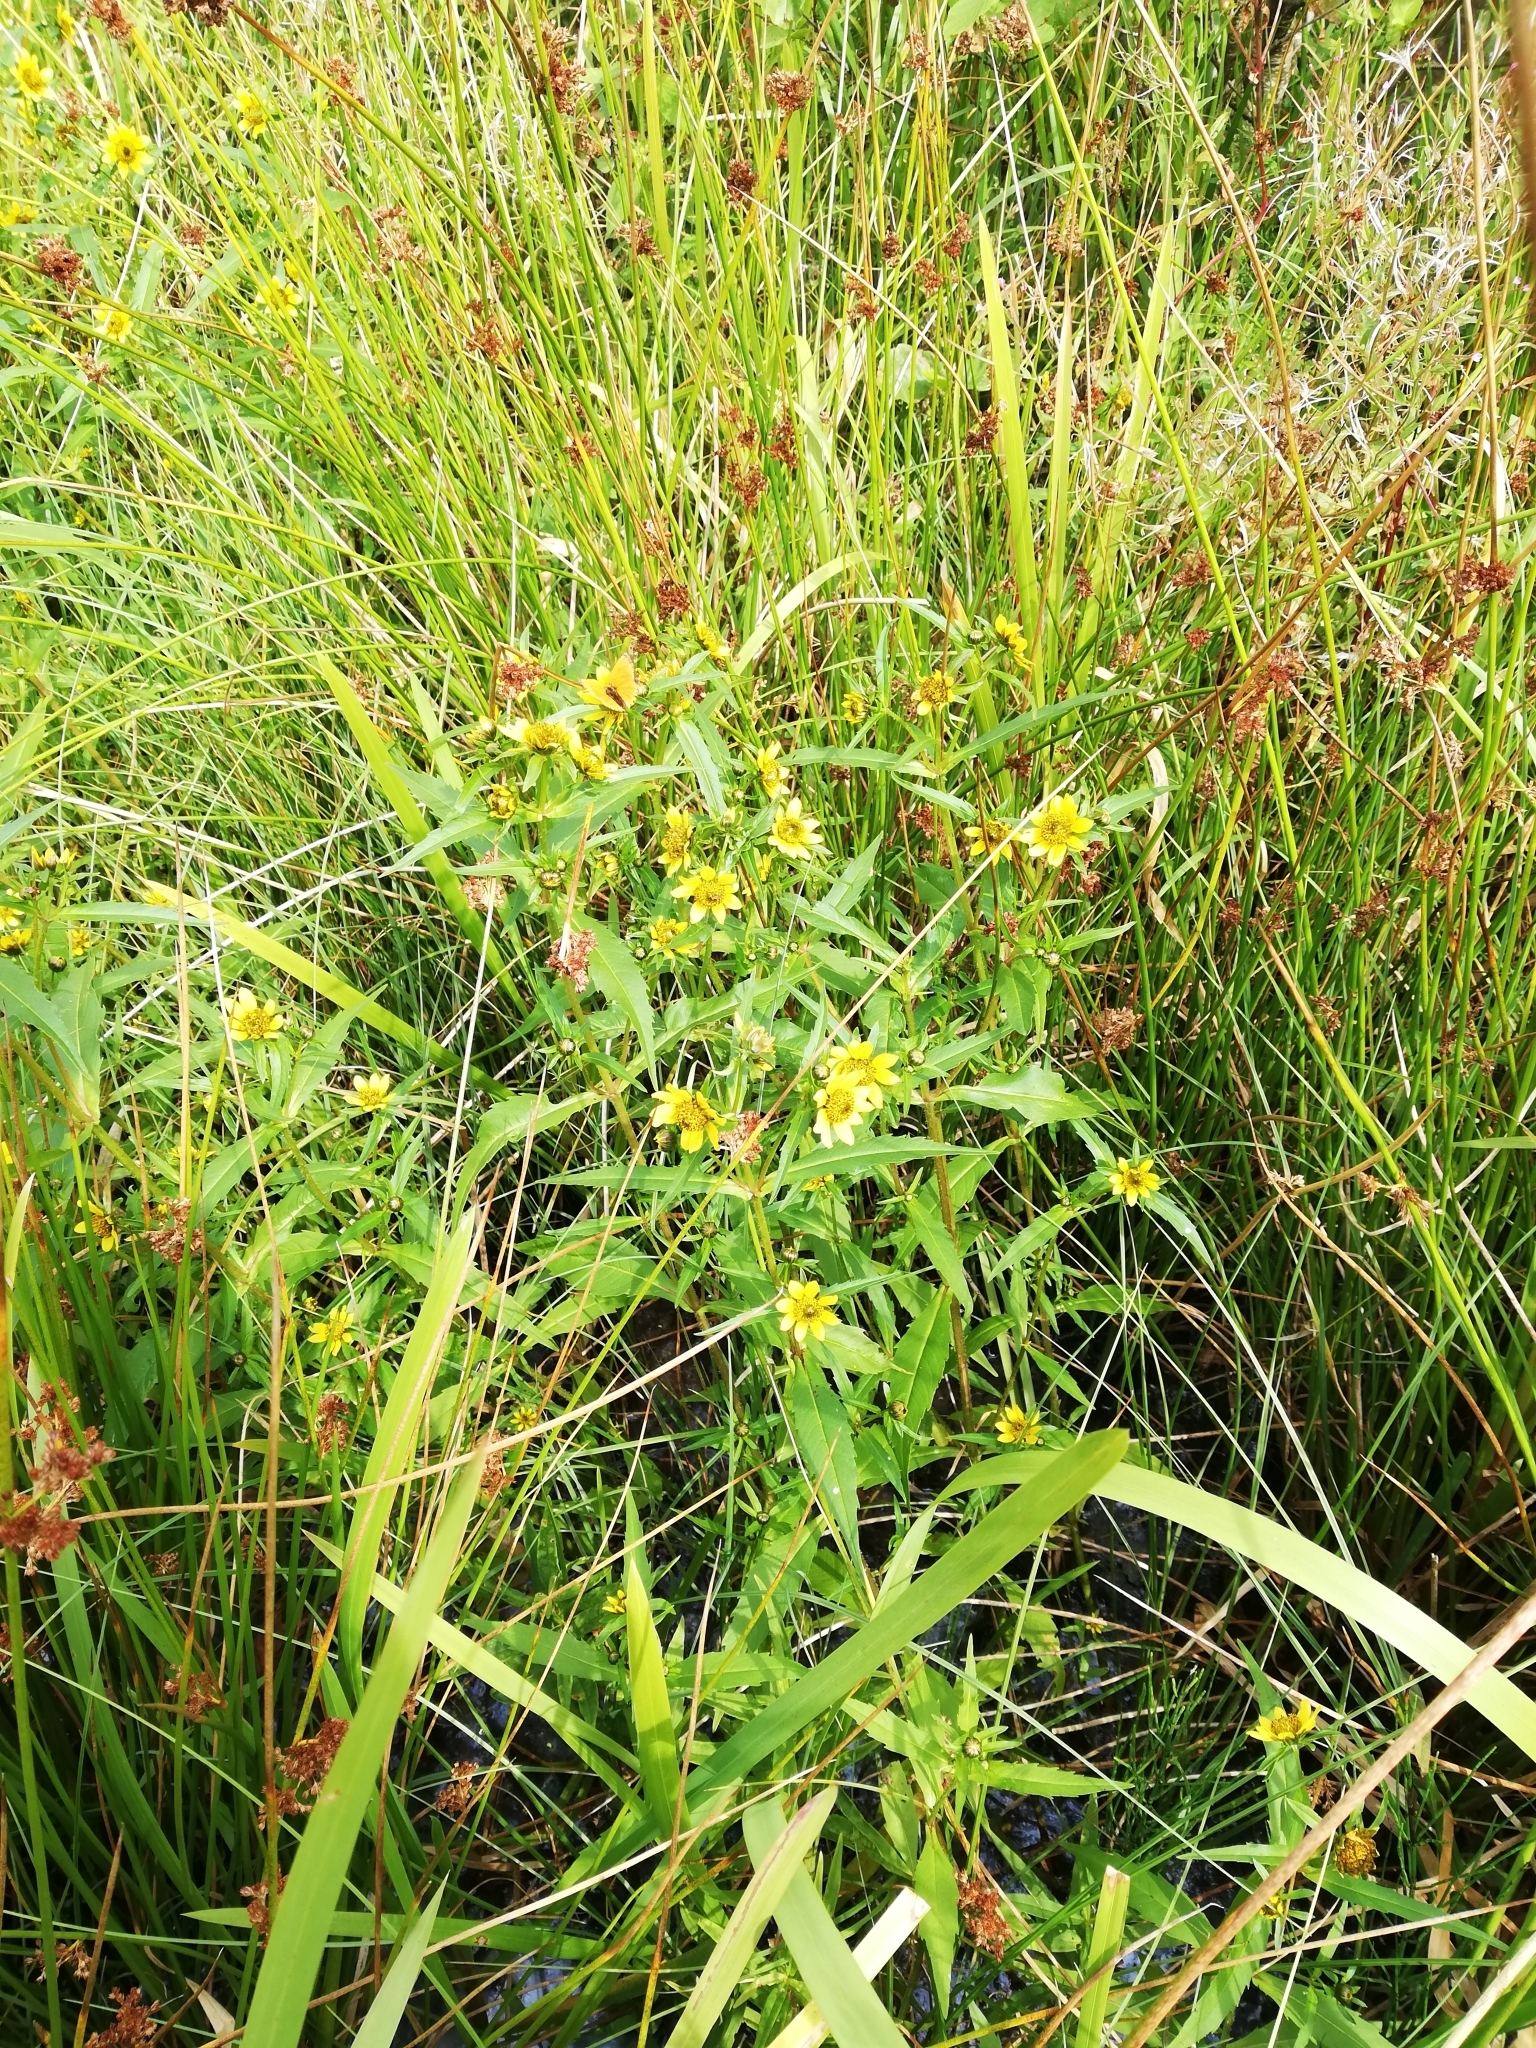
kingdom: Plantae
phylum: Tracheophyta
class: Magnoliopsida
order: Asterales
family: Asteraceae
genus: Bidens
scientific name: Bidens cernua
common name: Nodding bur-marigold
